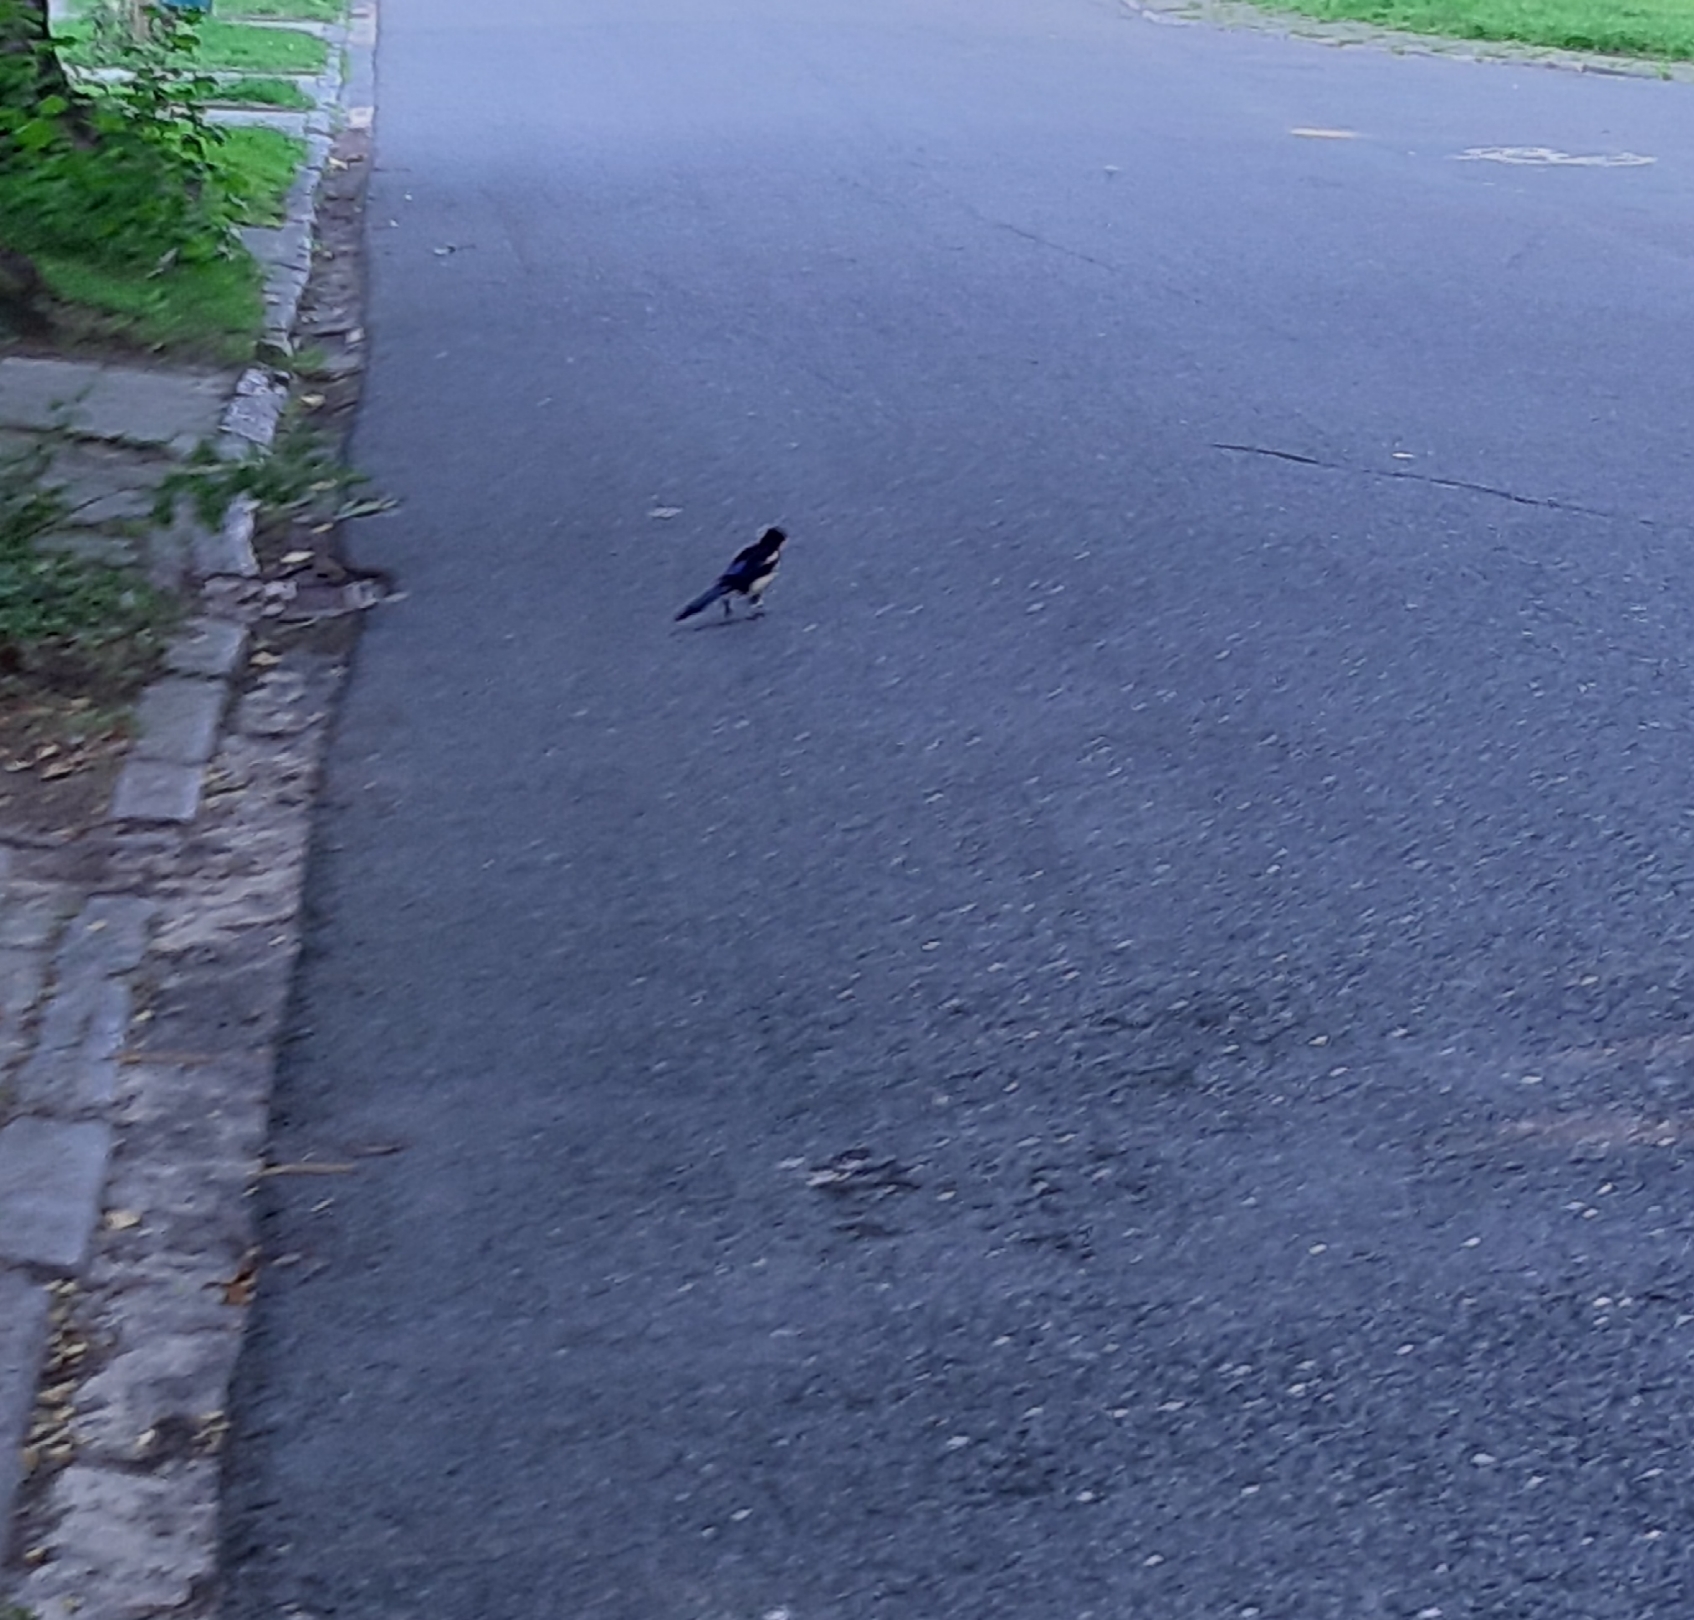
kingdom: Animalia
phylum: Chordata
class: Aves
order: Passeriformes
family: Corvidae
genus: Pica
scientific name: Pica pica
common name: Eurasian magpie
